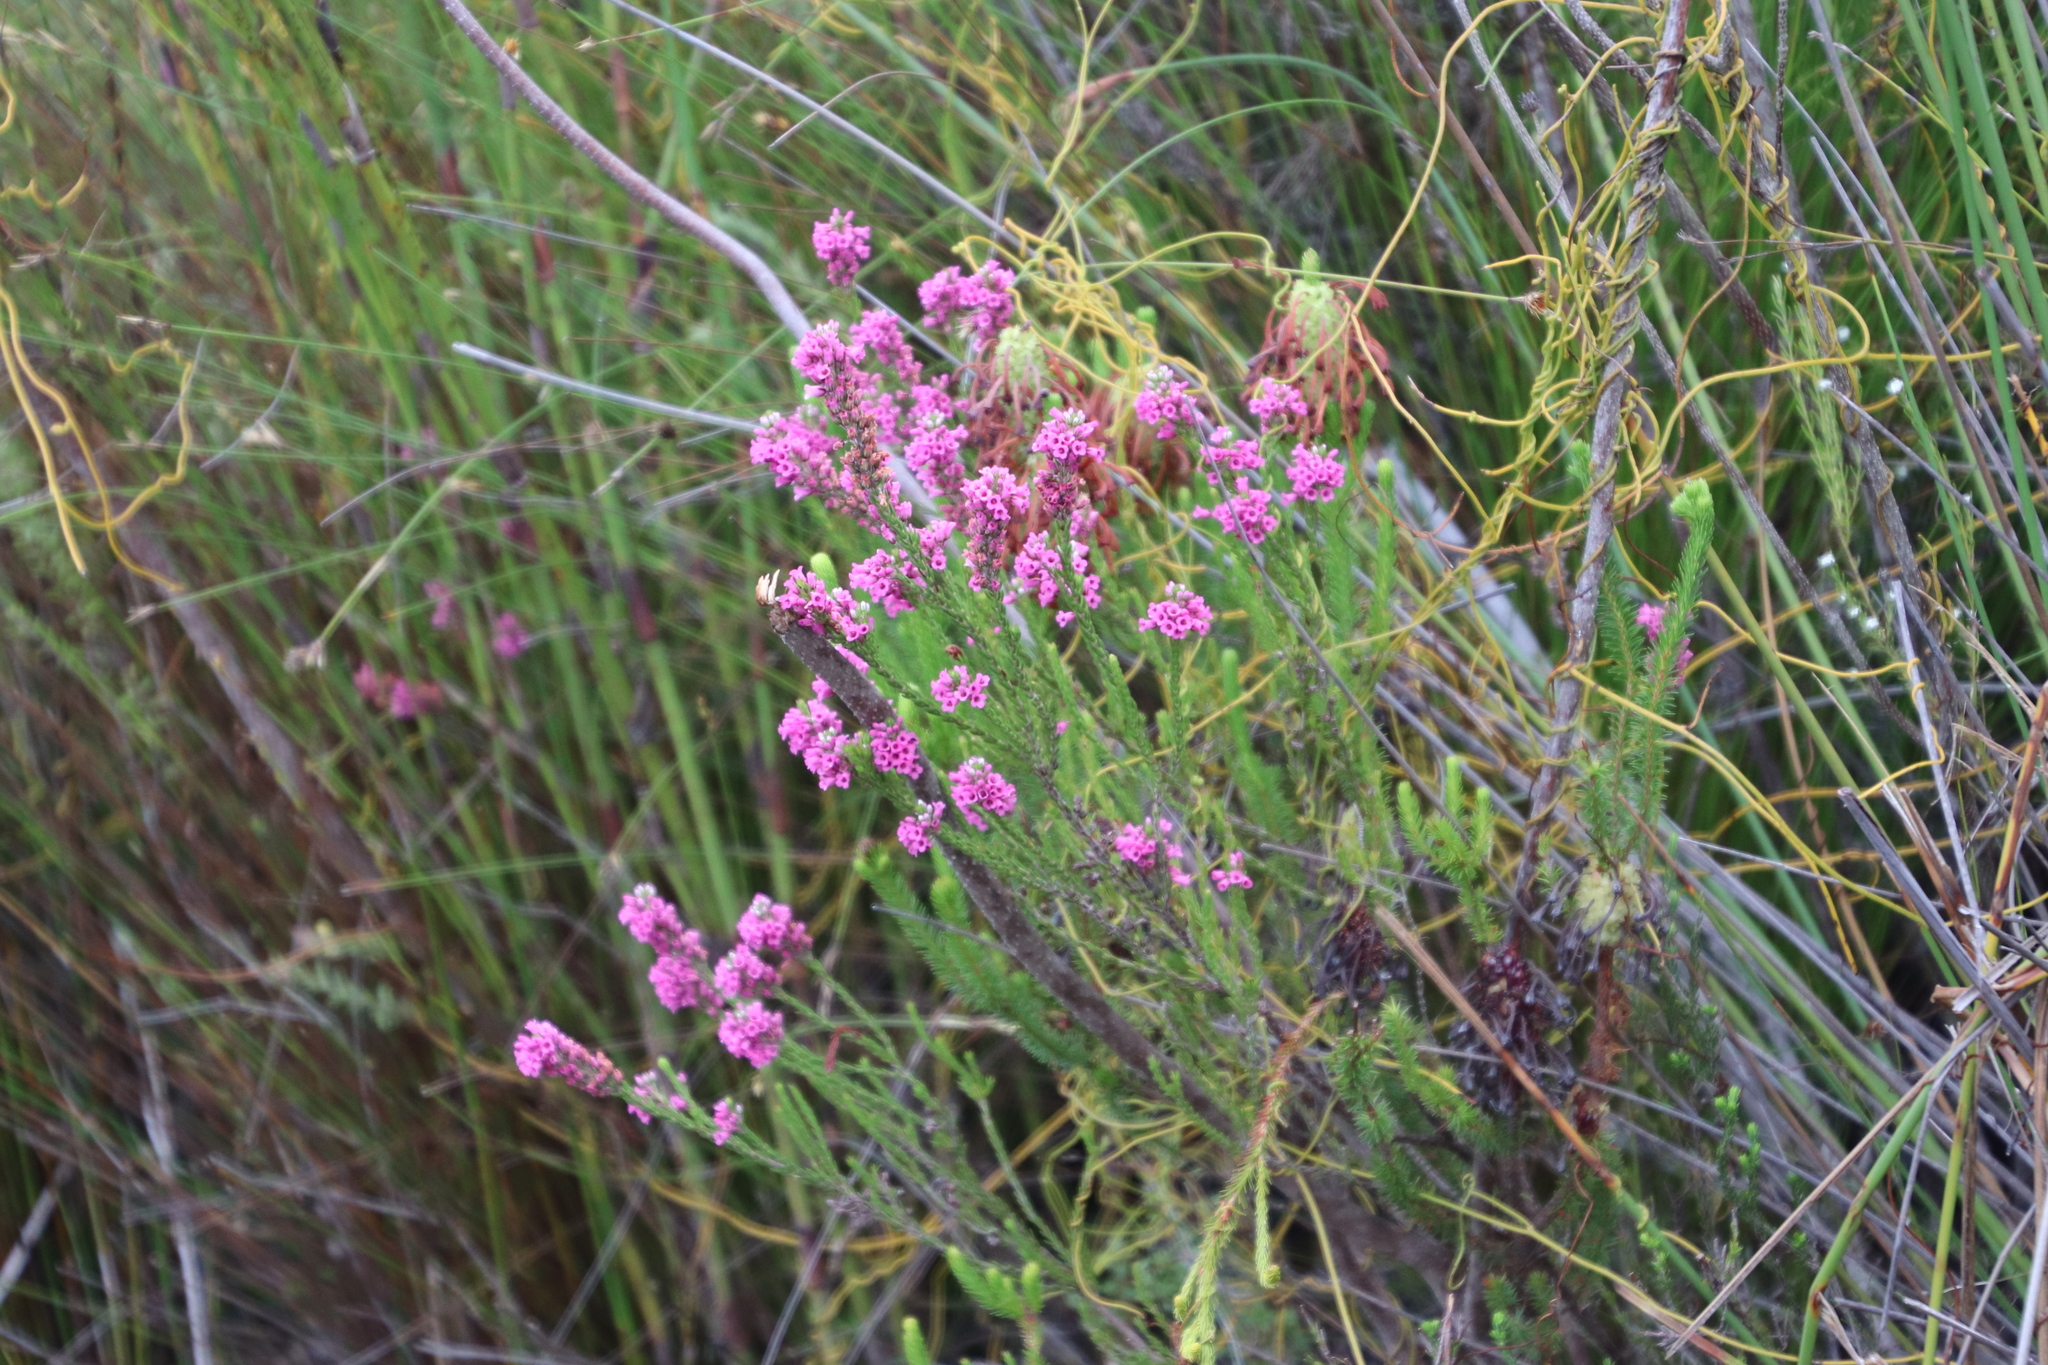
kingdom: Plantae
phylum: Tracheophyta
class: Magnoliopsida
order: Ericales
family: Ericaceae
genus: Erica
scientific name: Erica longiaristata
